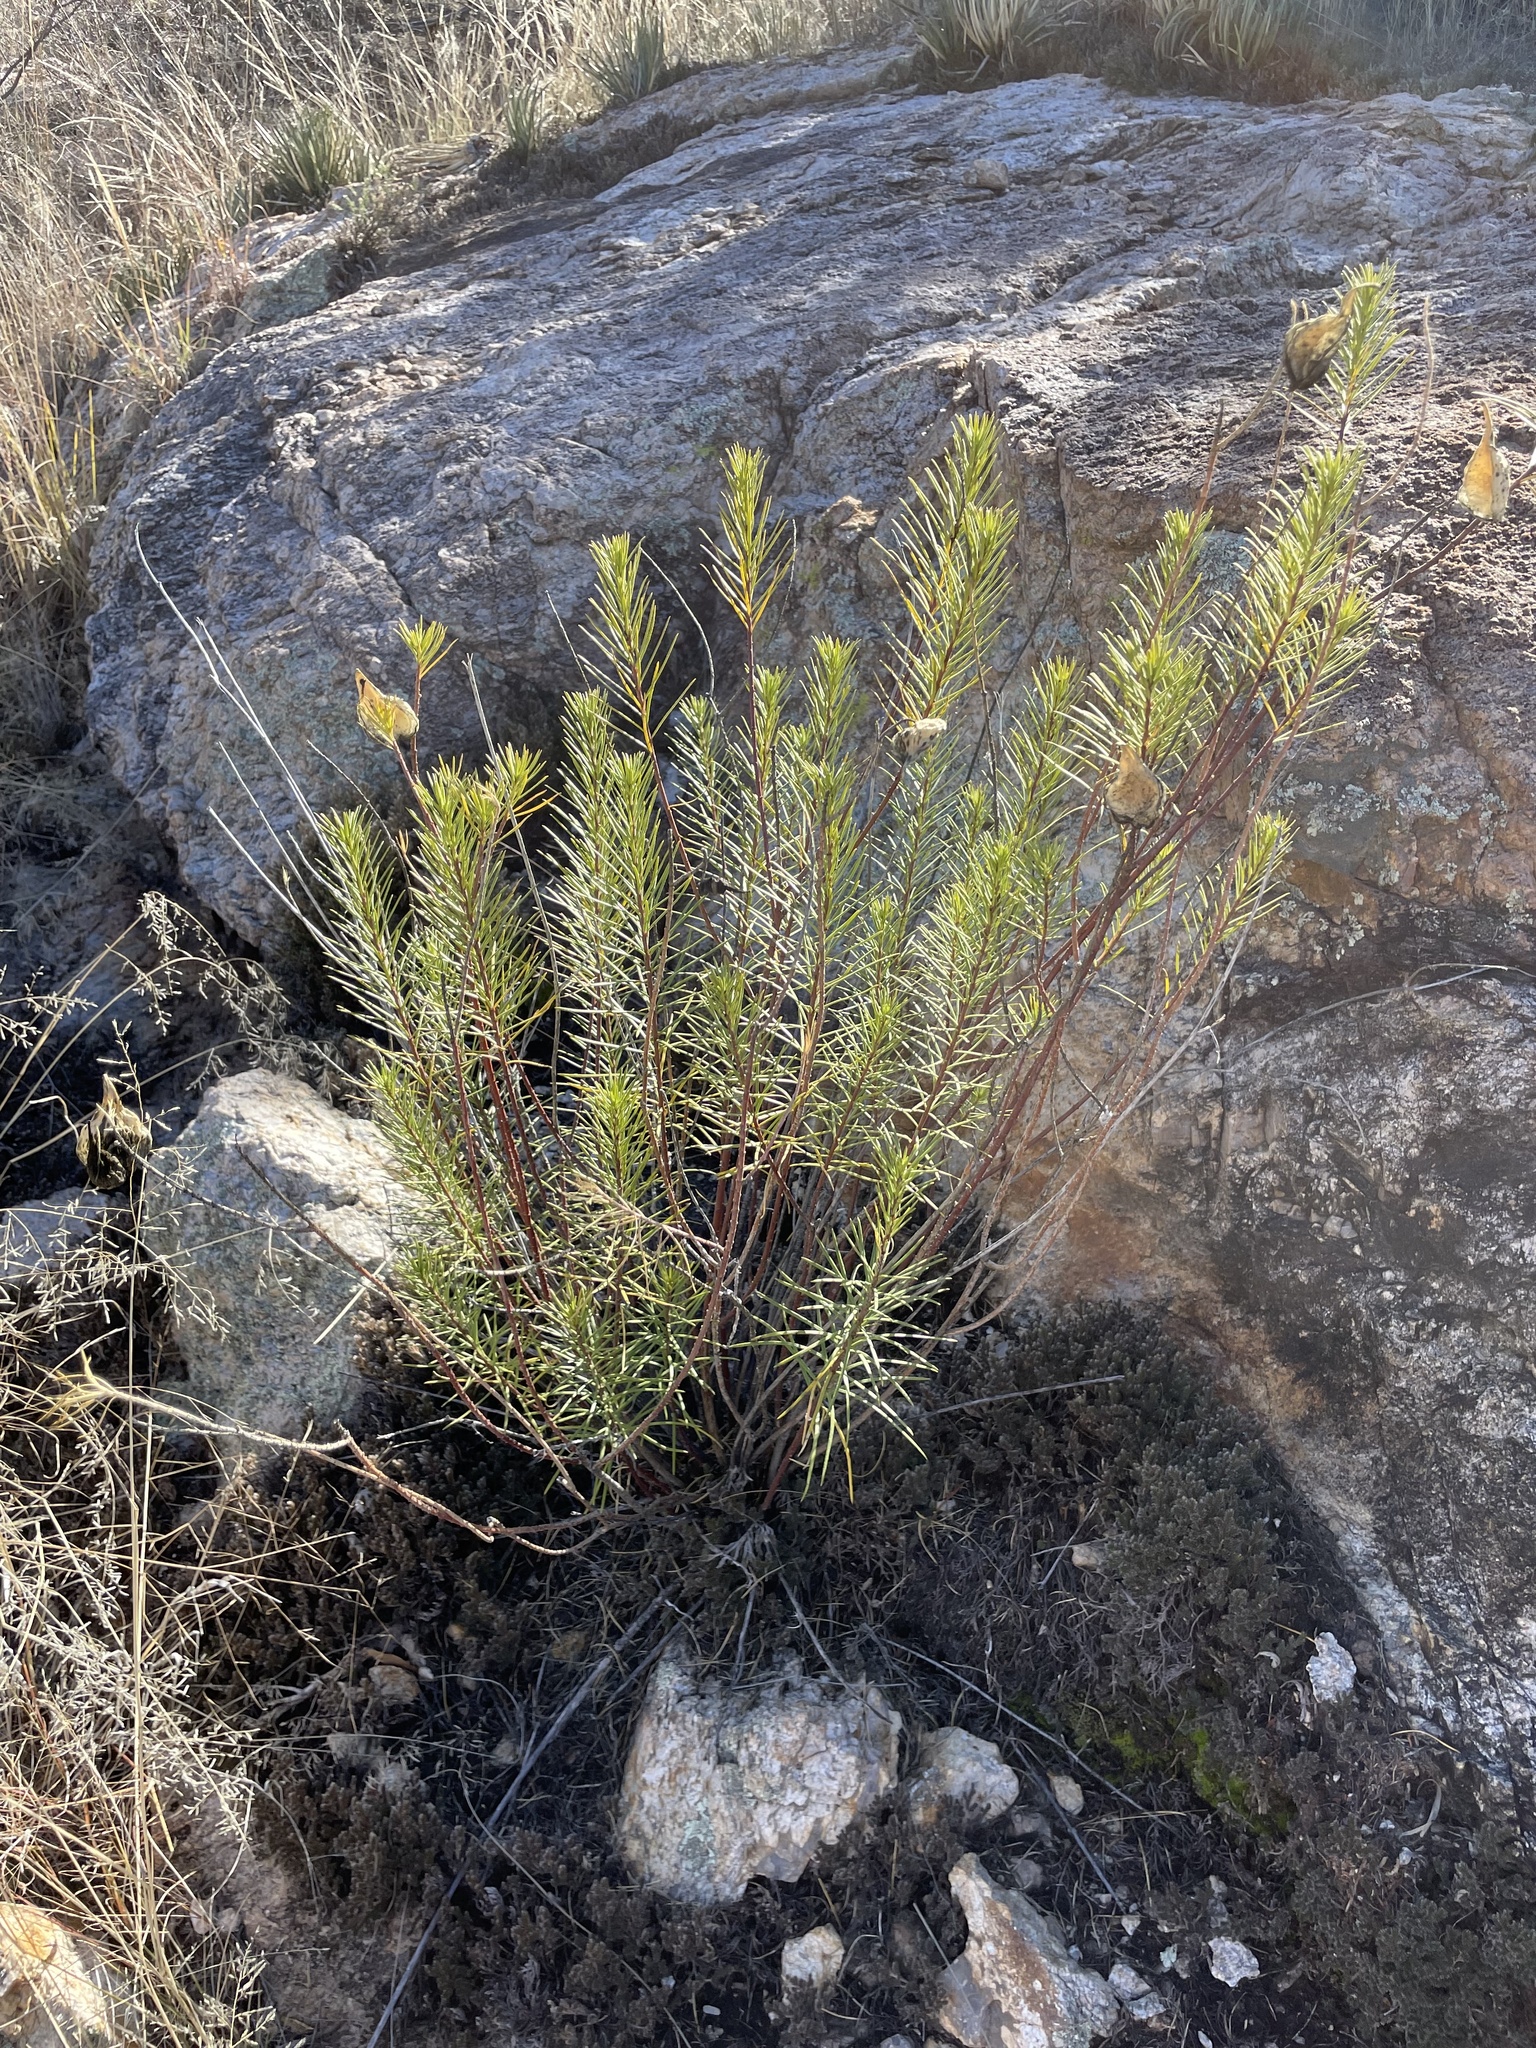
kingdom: Plantae
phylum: Tracheophyta
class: Magnoliopsida
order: Gentianales
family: Apocynaceae
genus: Asclepias
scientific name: Asclepias linaria
